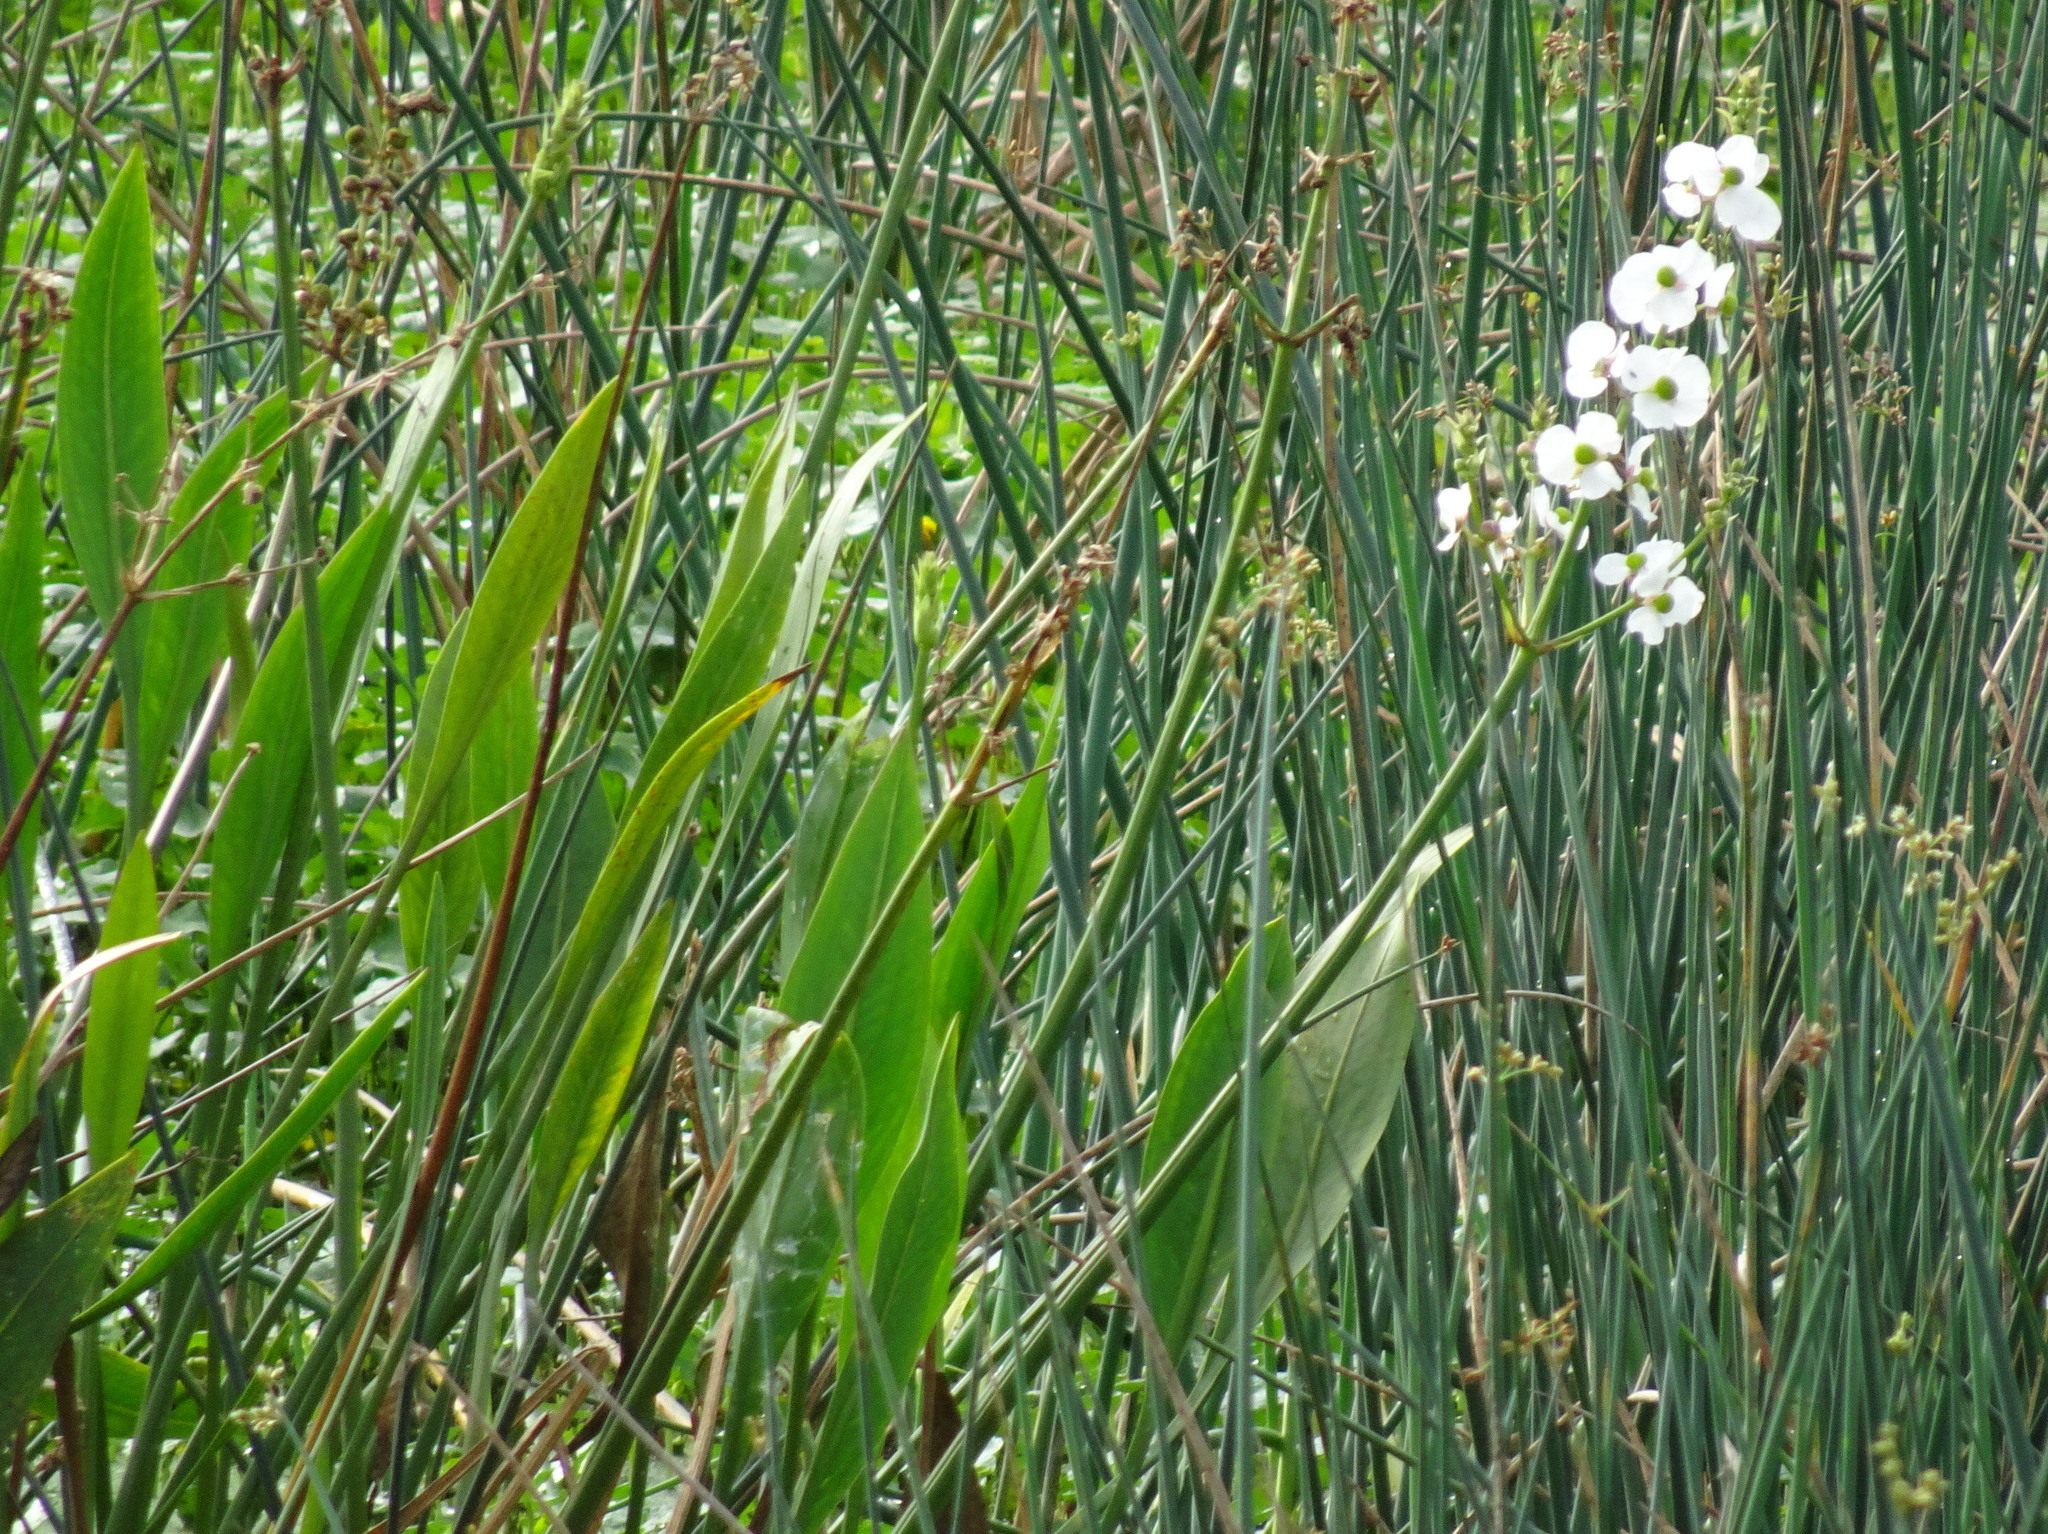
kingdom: Plantae
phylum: Tracheophyta
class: Liliopsida
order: Alismatales
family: Alismataceae
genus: Sagittaria
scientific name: Sagittaria lancifolia
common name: Lance-leaf arrowhead
